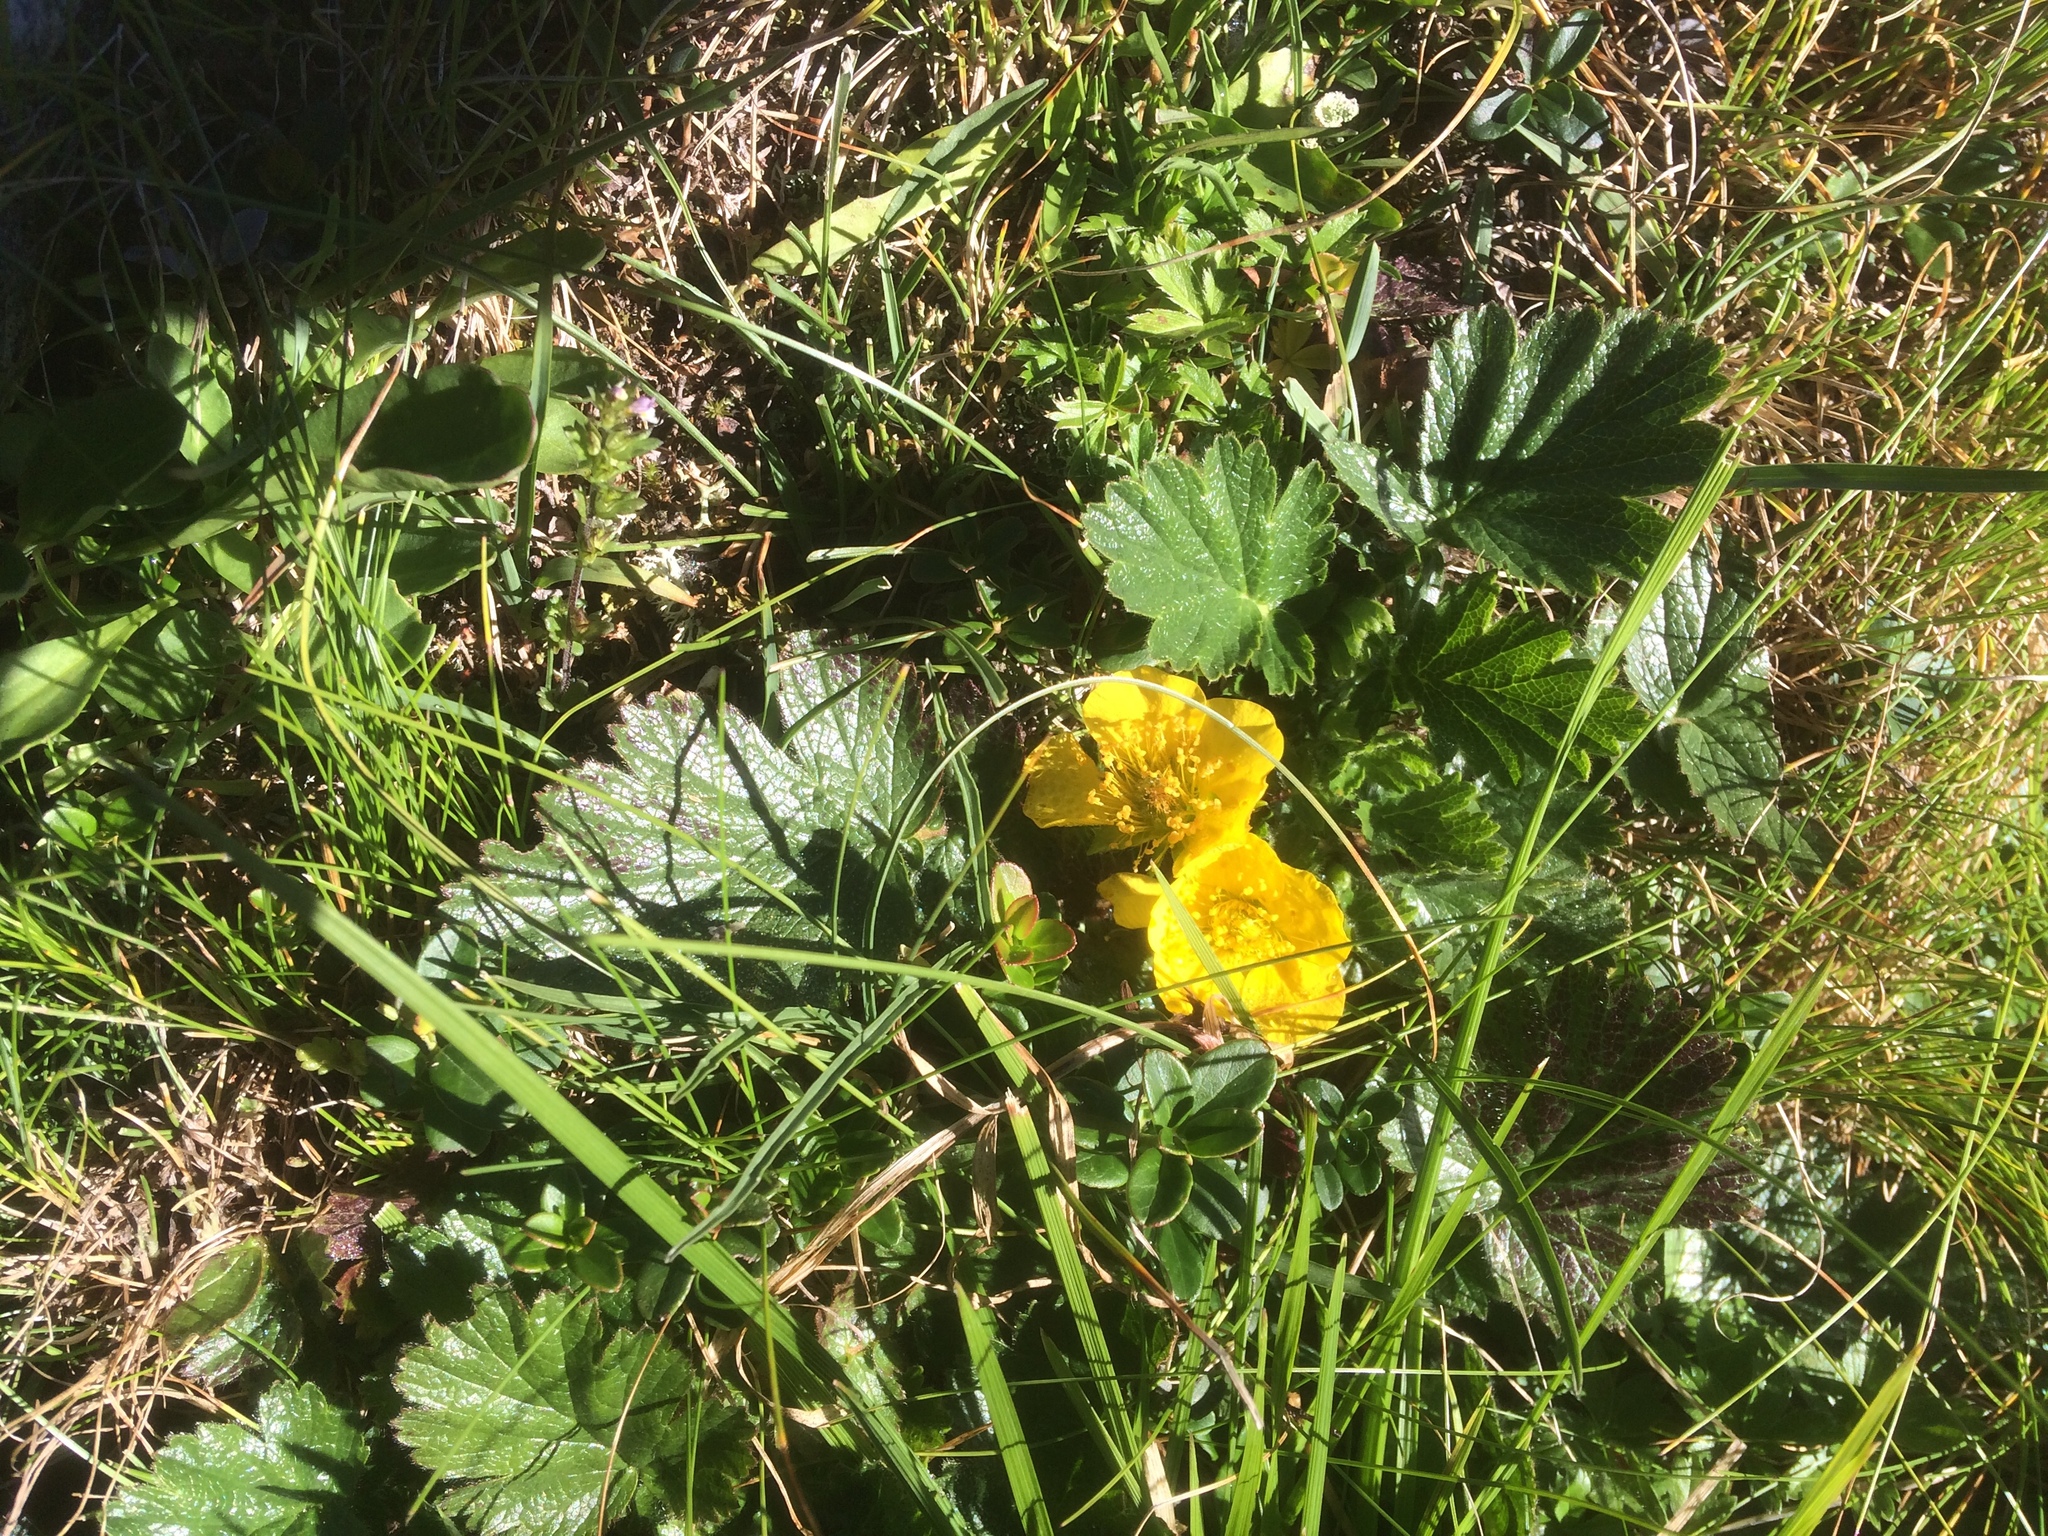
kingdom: Plantae
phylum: Tracheophyta
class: Magnoliopsida
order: Rosales
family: Rosaceae
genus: Geum
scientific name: Geum montanum
